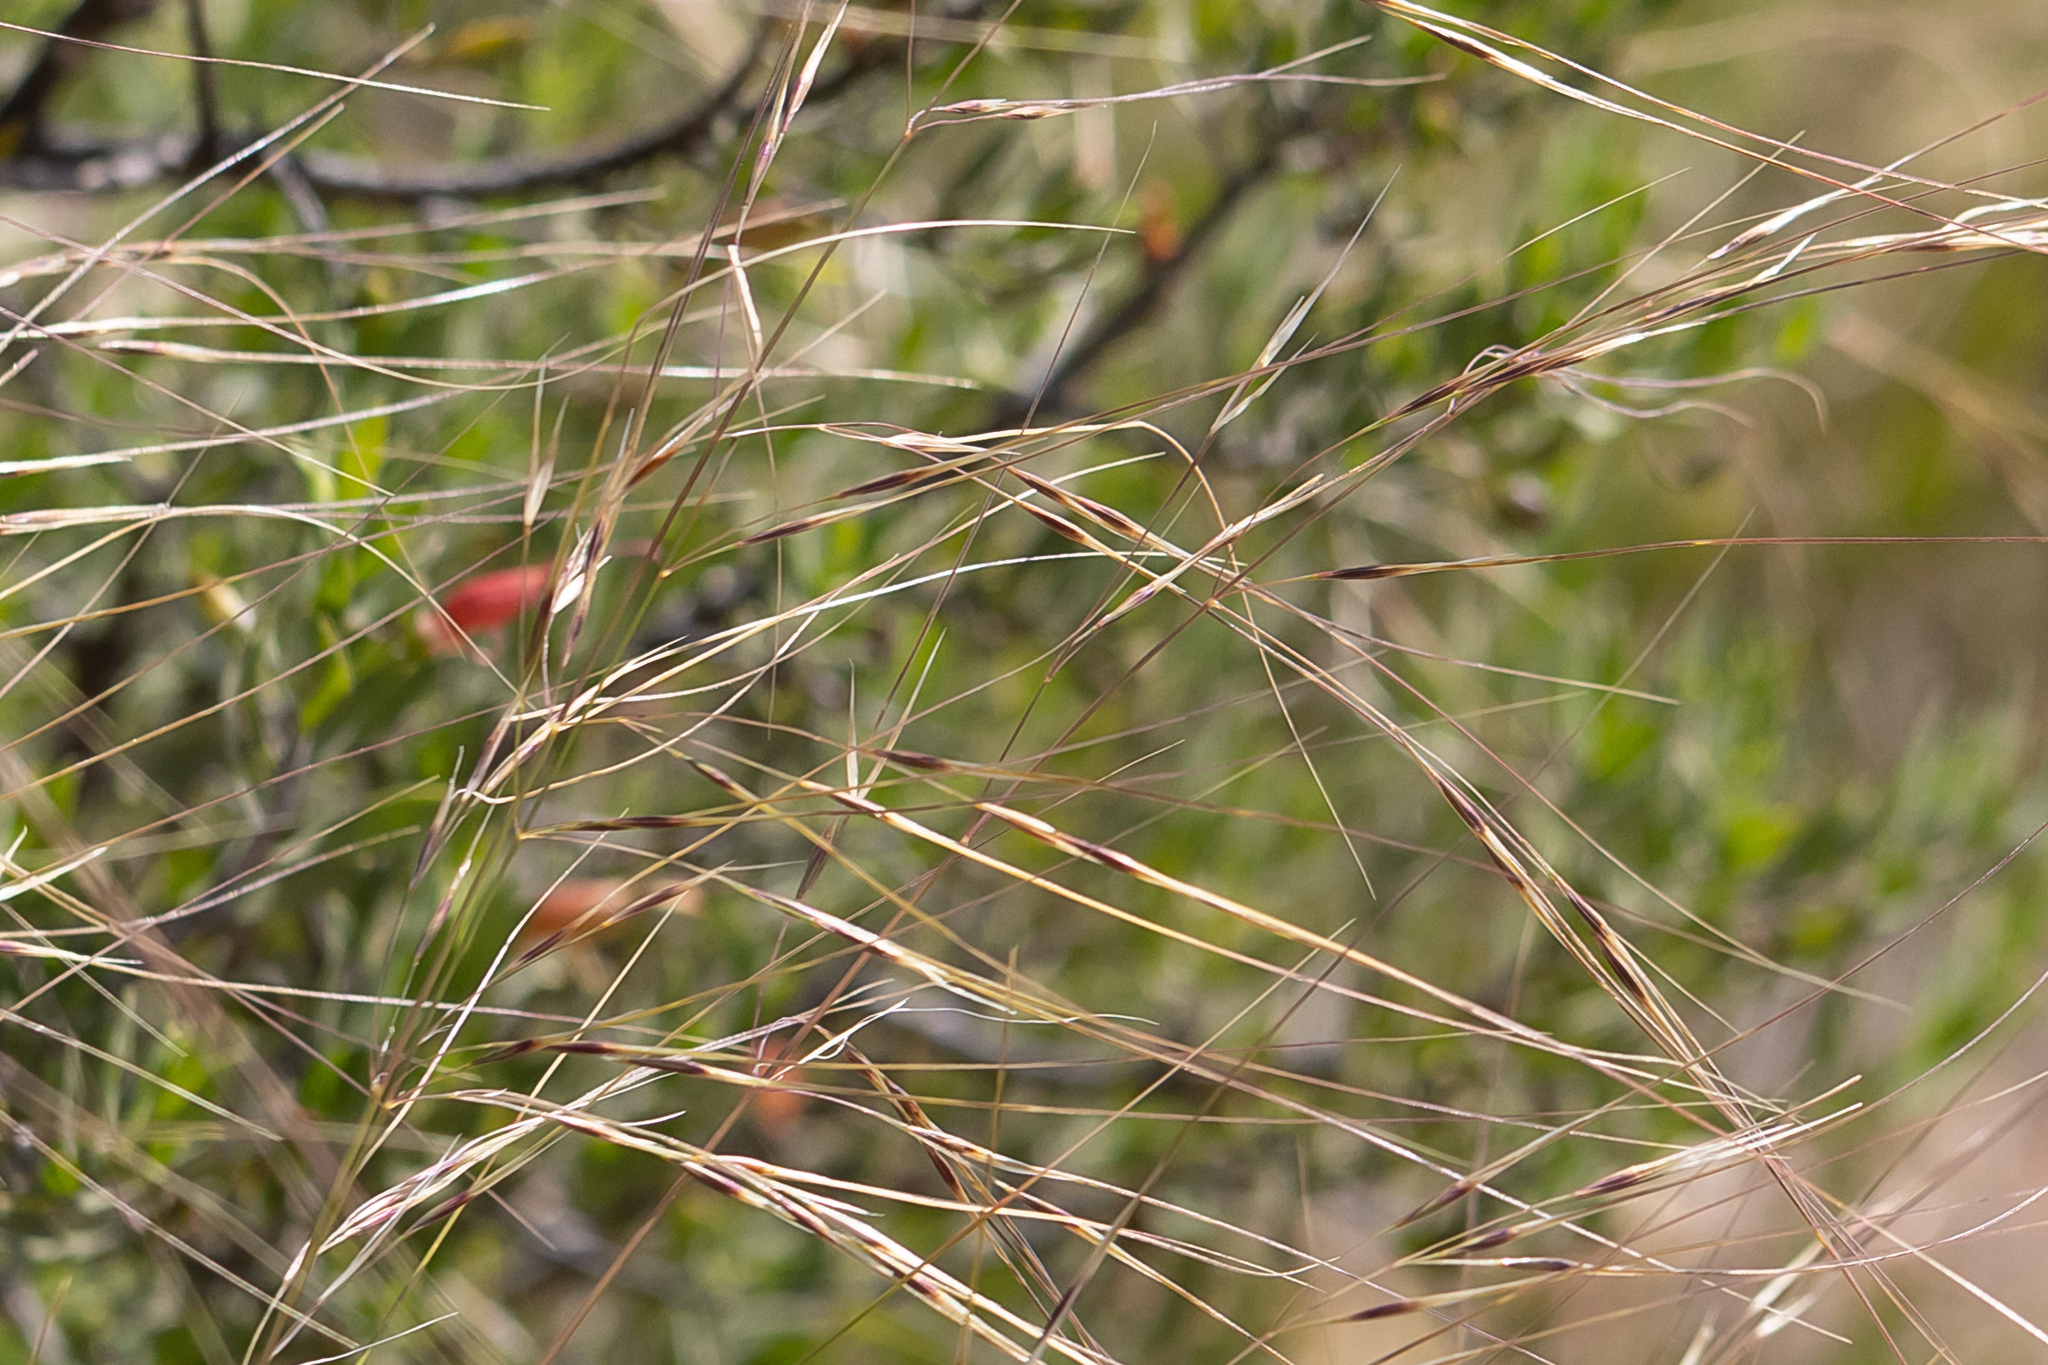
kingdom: Plantae
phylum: Tracheophyta
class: Liliopsida
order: Poales
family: Poaceae
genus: Austrostipa
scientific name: Austrostipa eremophila
